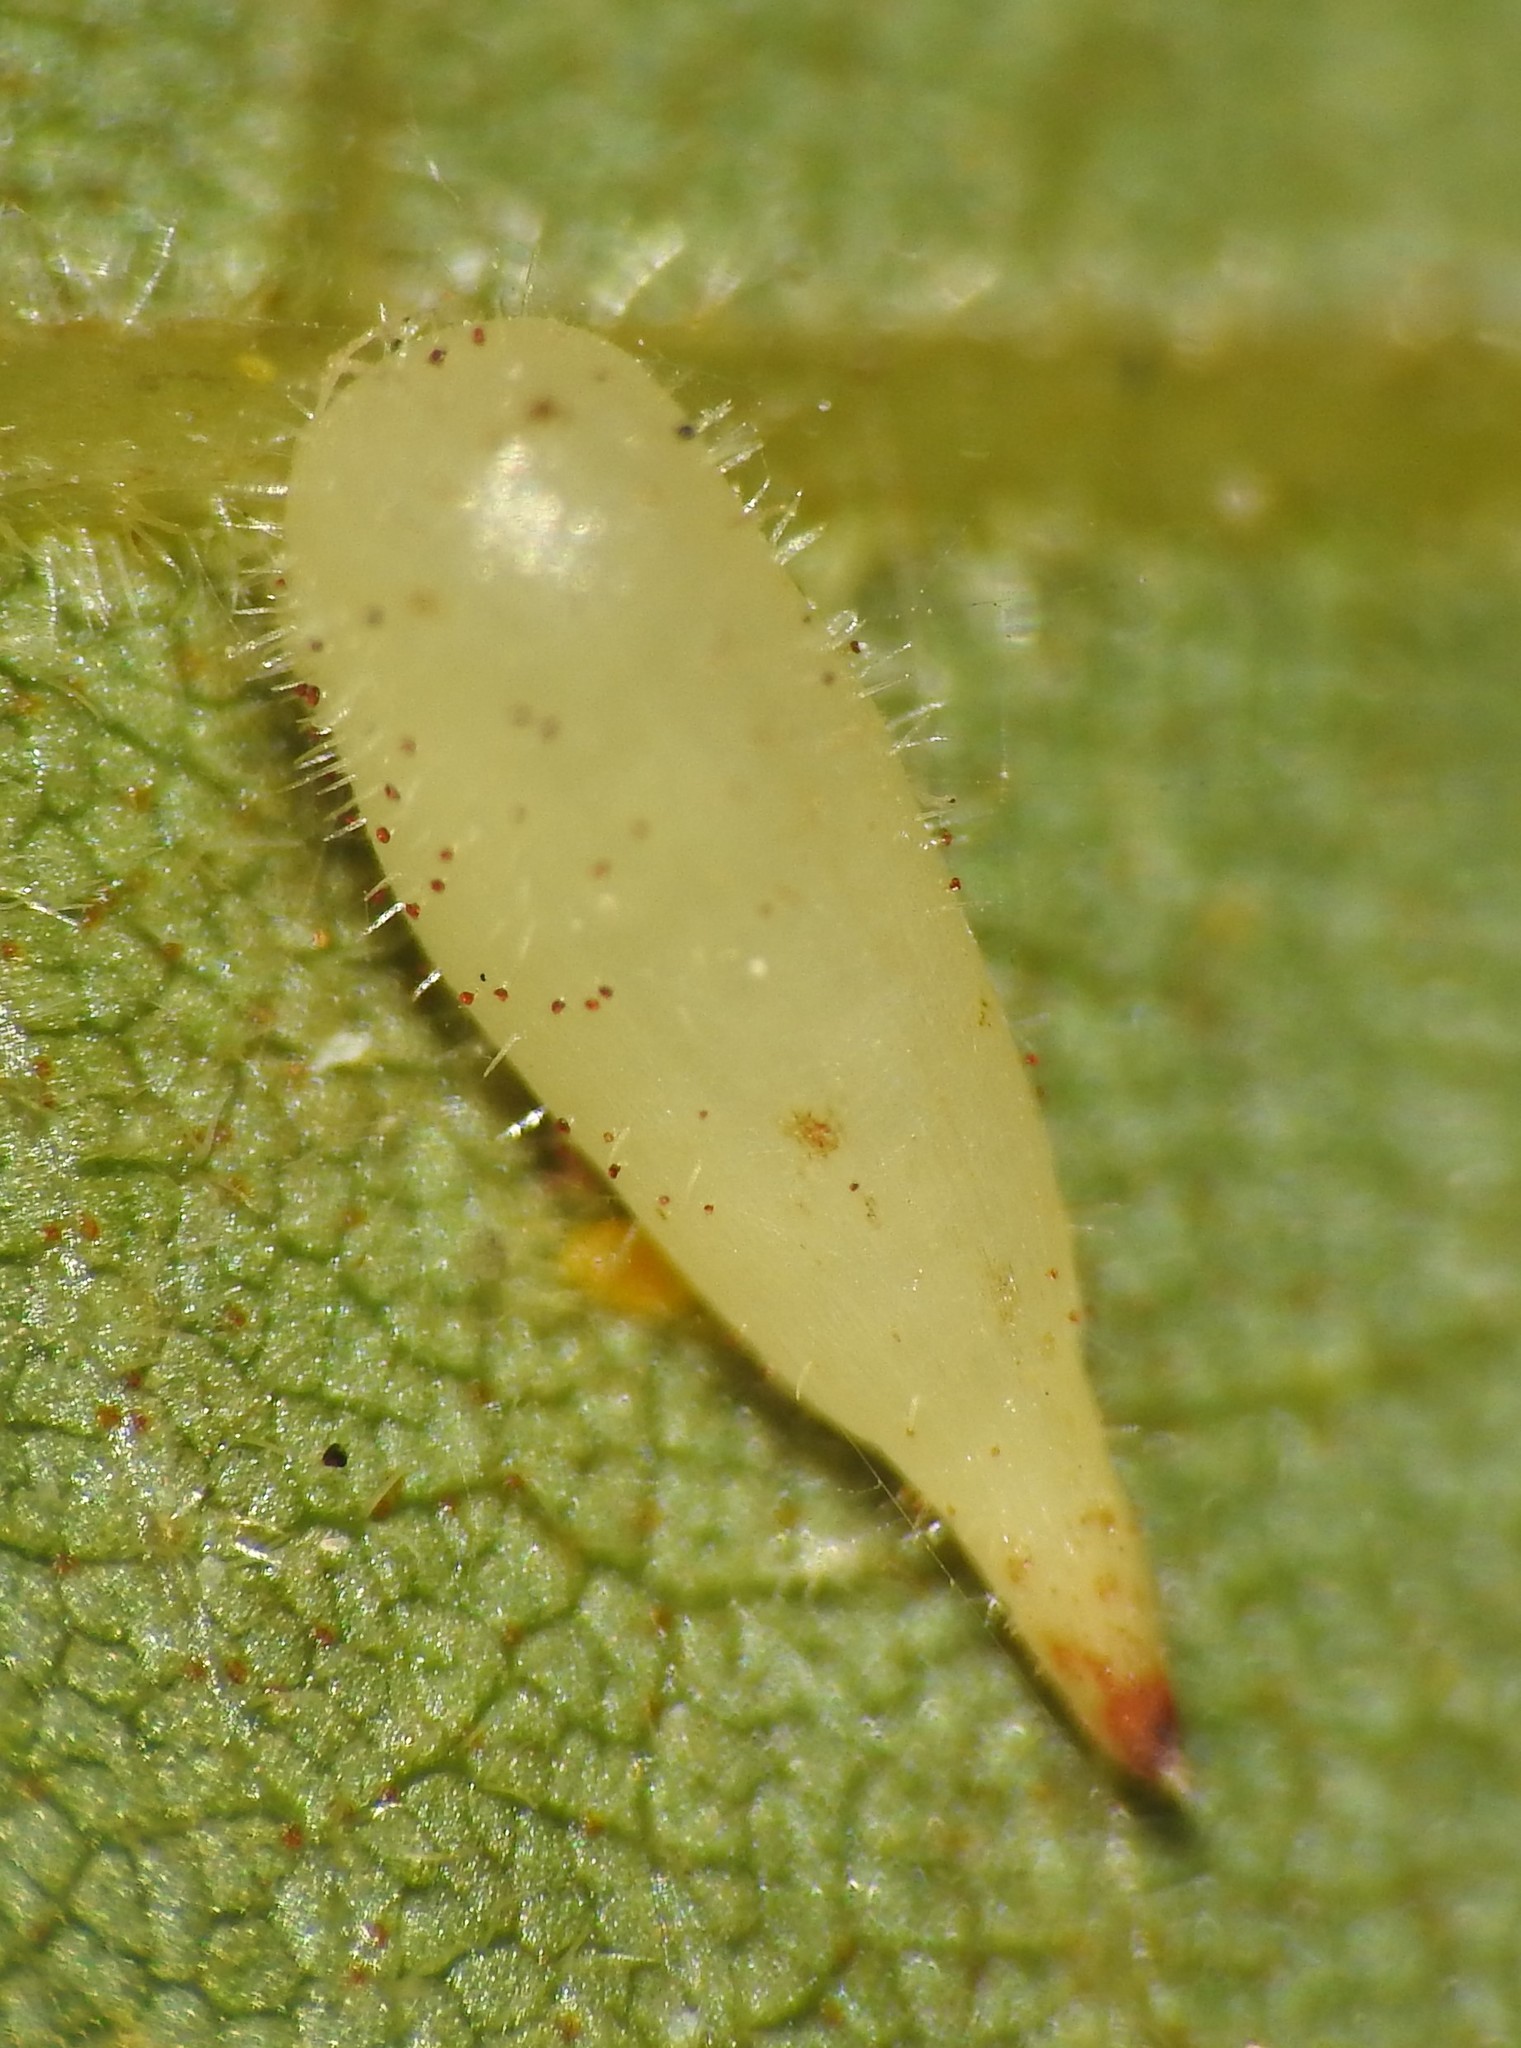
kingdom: Animalia
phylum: Arthropoda
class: Insecta
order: Diptera
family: Cecidomyiidae
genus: Caryomyia
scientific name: Caryomyia procumbens
